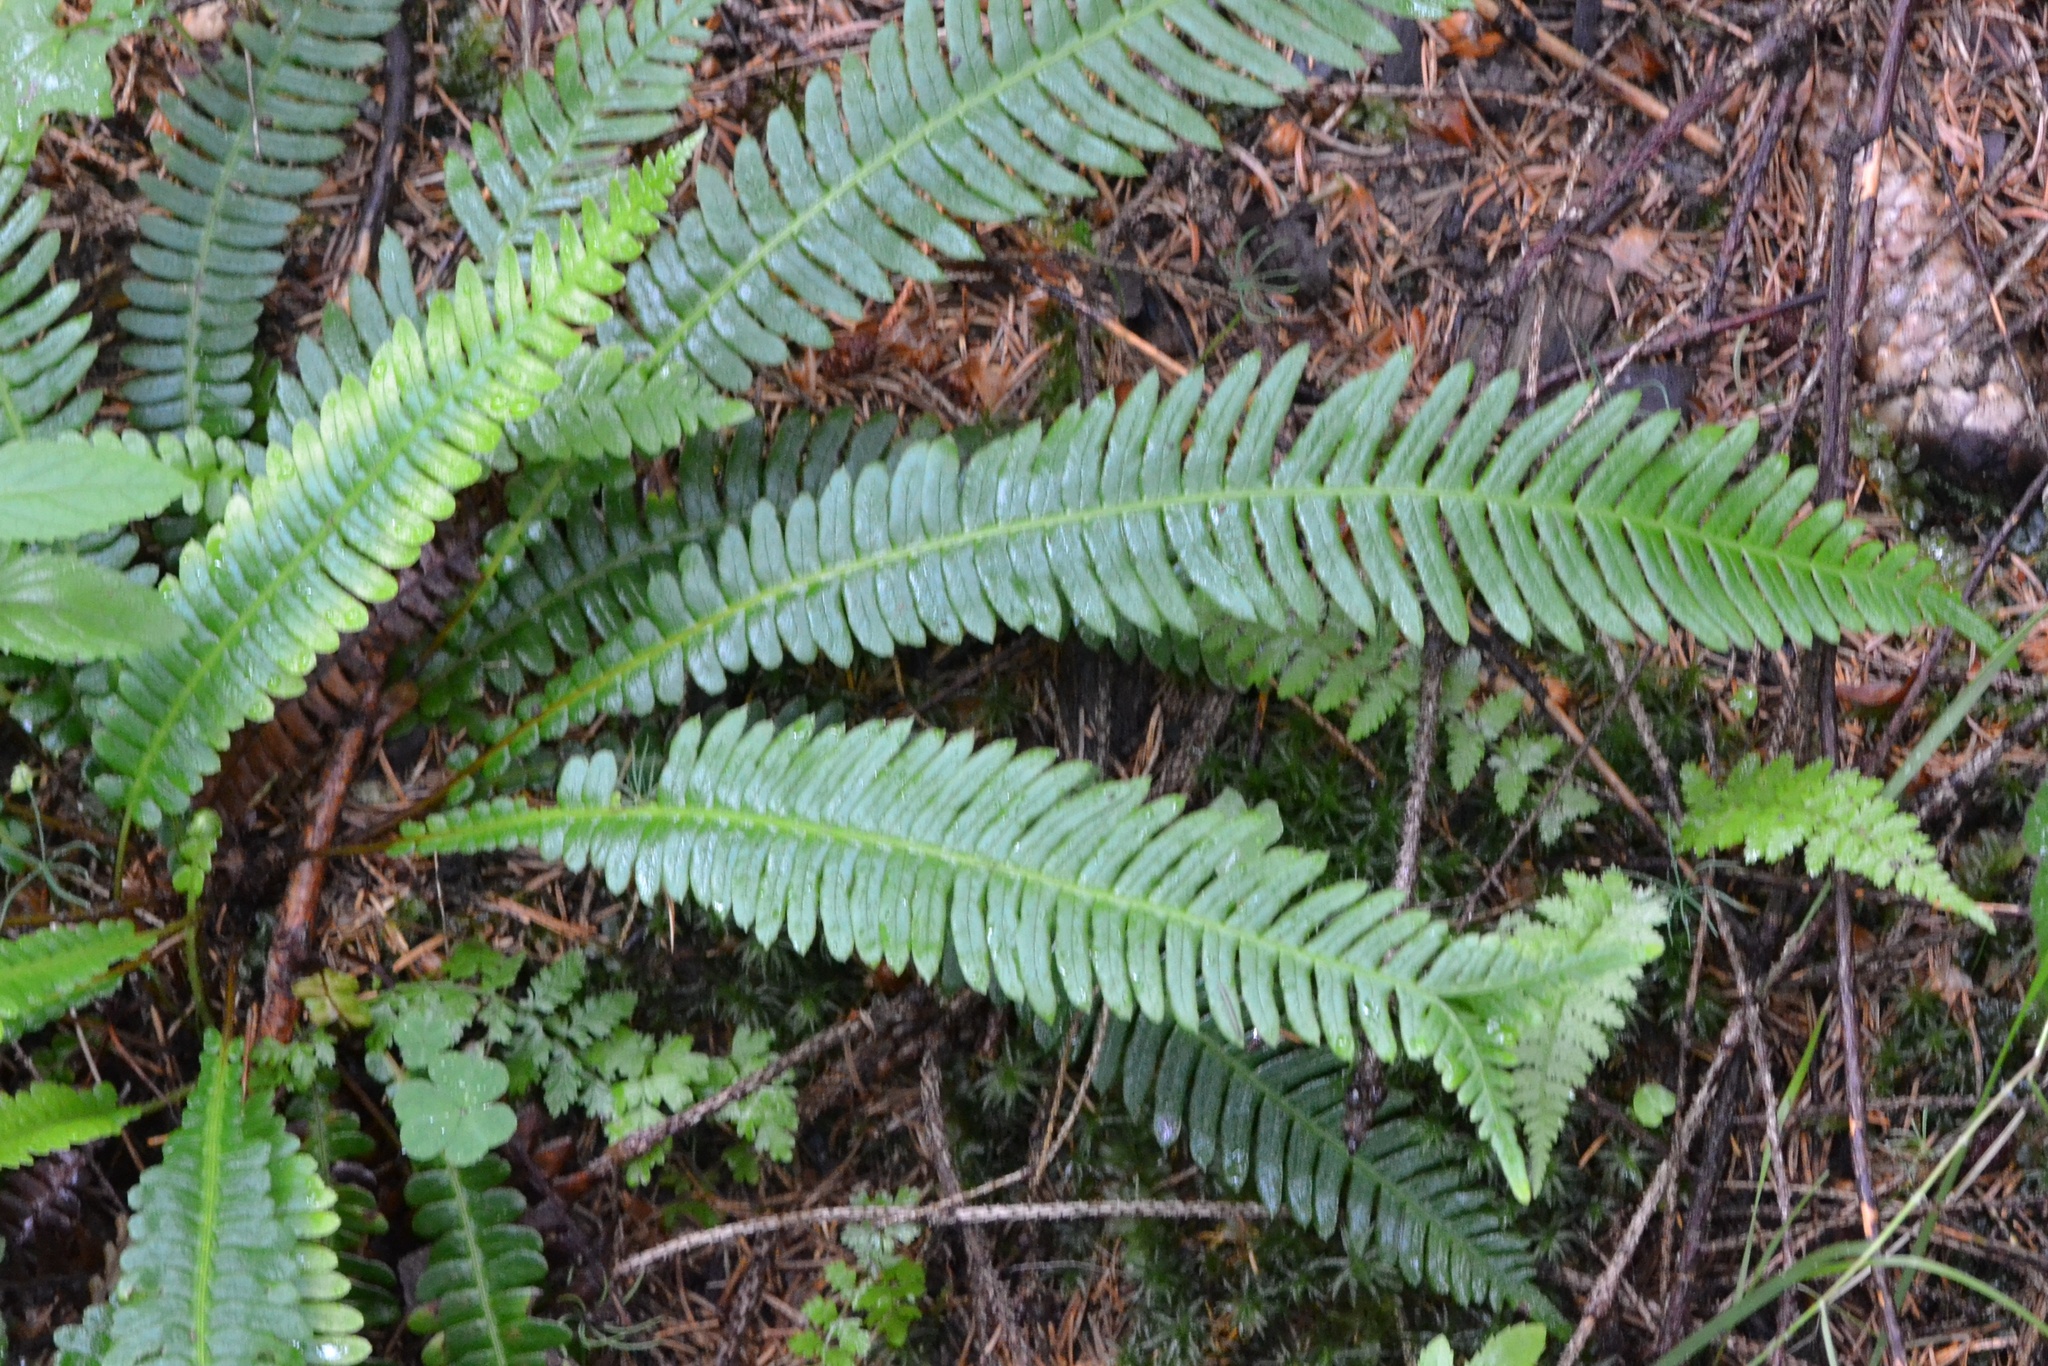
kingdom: Plantae
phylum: Tracheophyta
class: Polypodiopsida
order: Polypodiales
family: Blechnaceae
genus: Struthiopteris
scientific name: Struthiopteris spicant
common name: Deer fern
